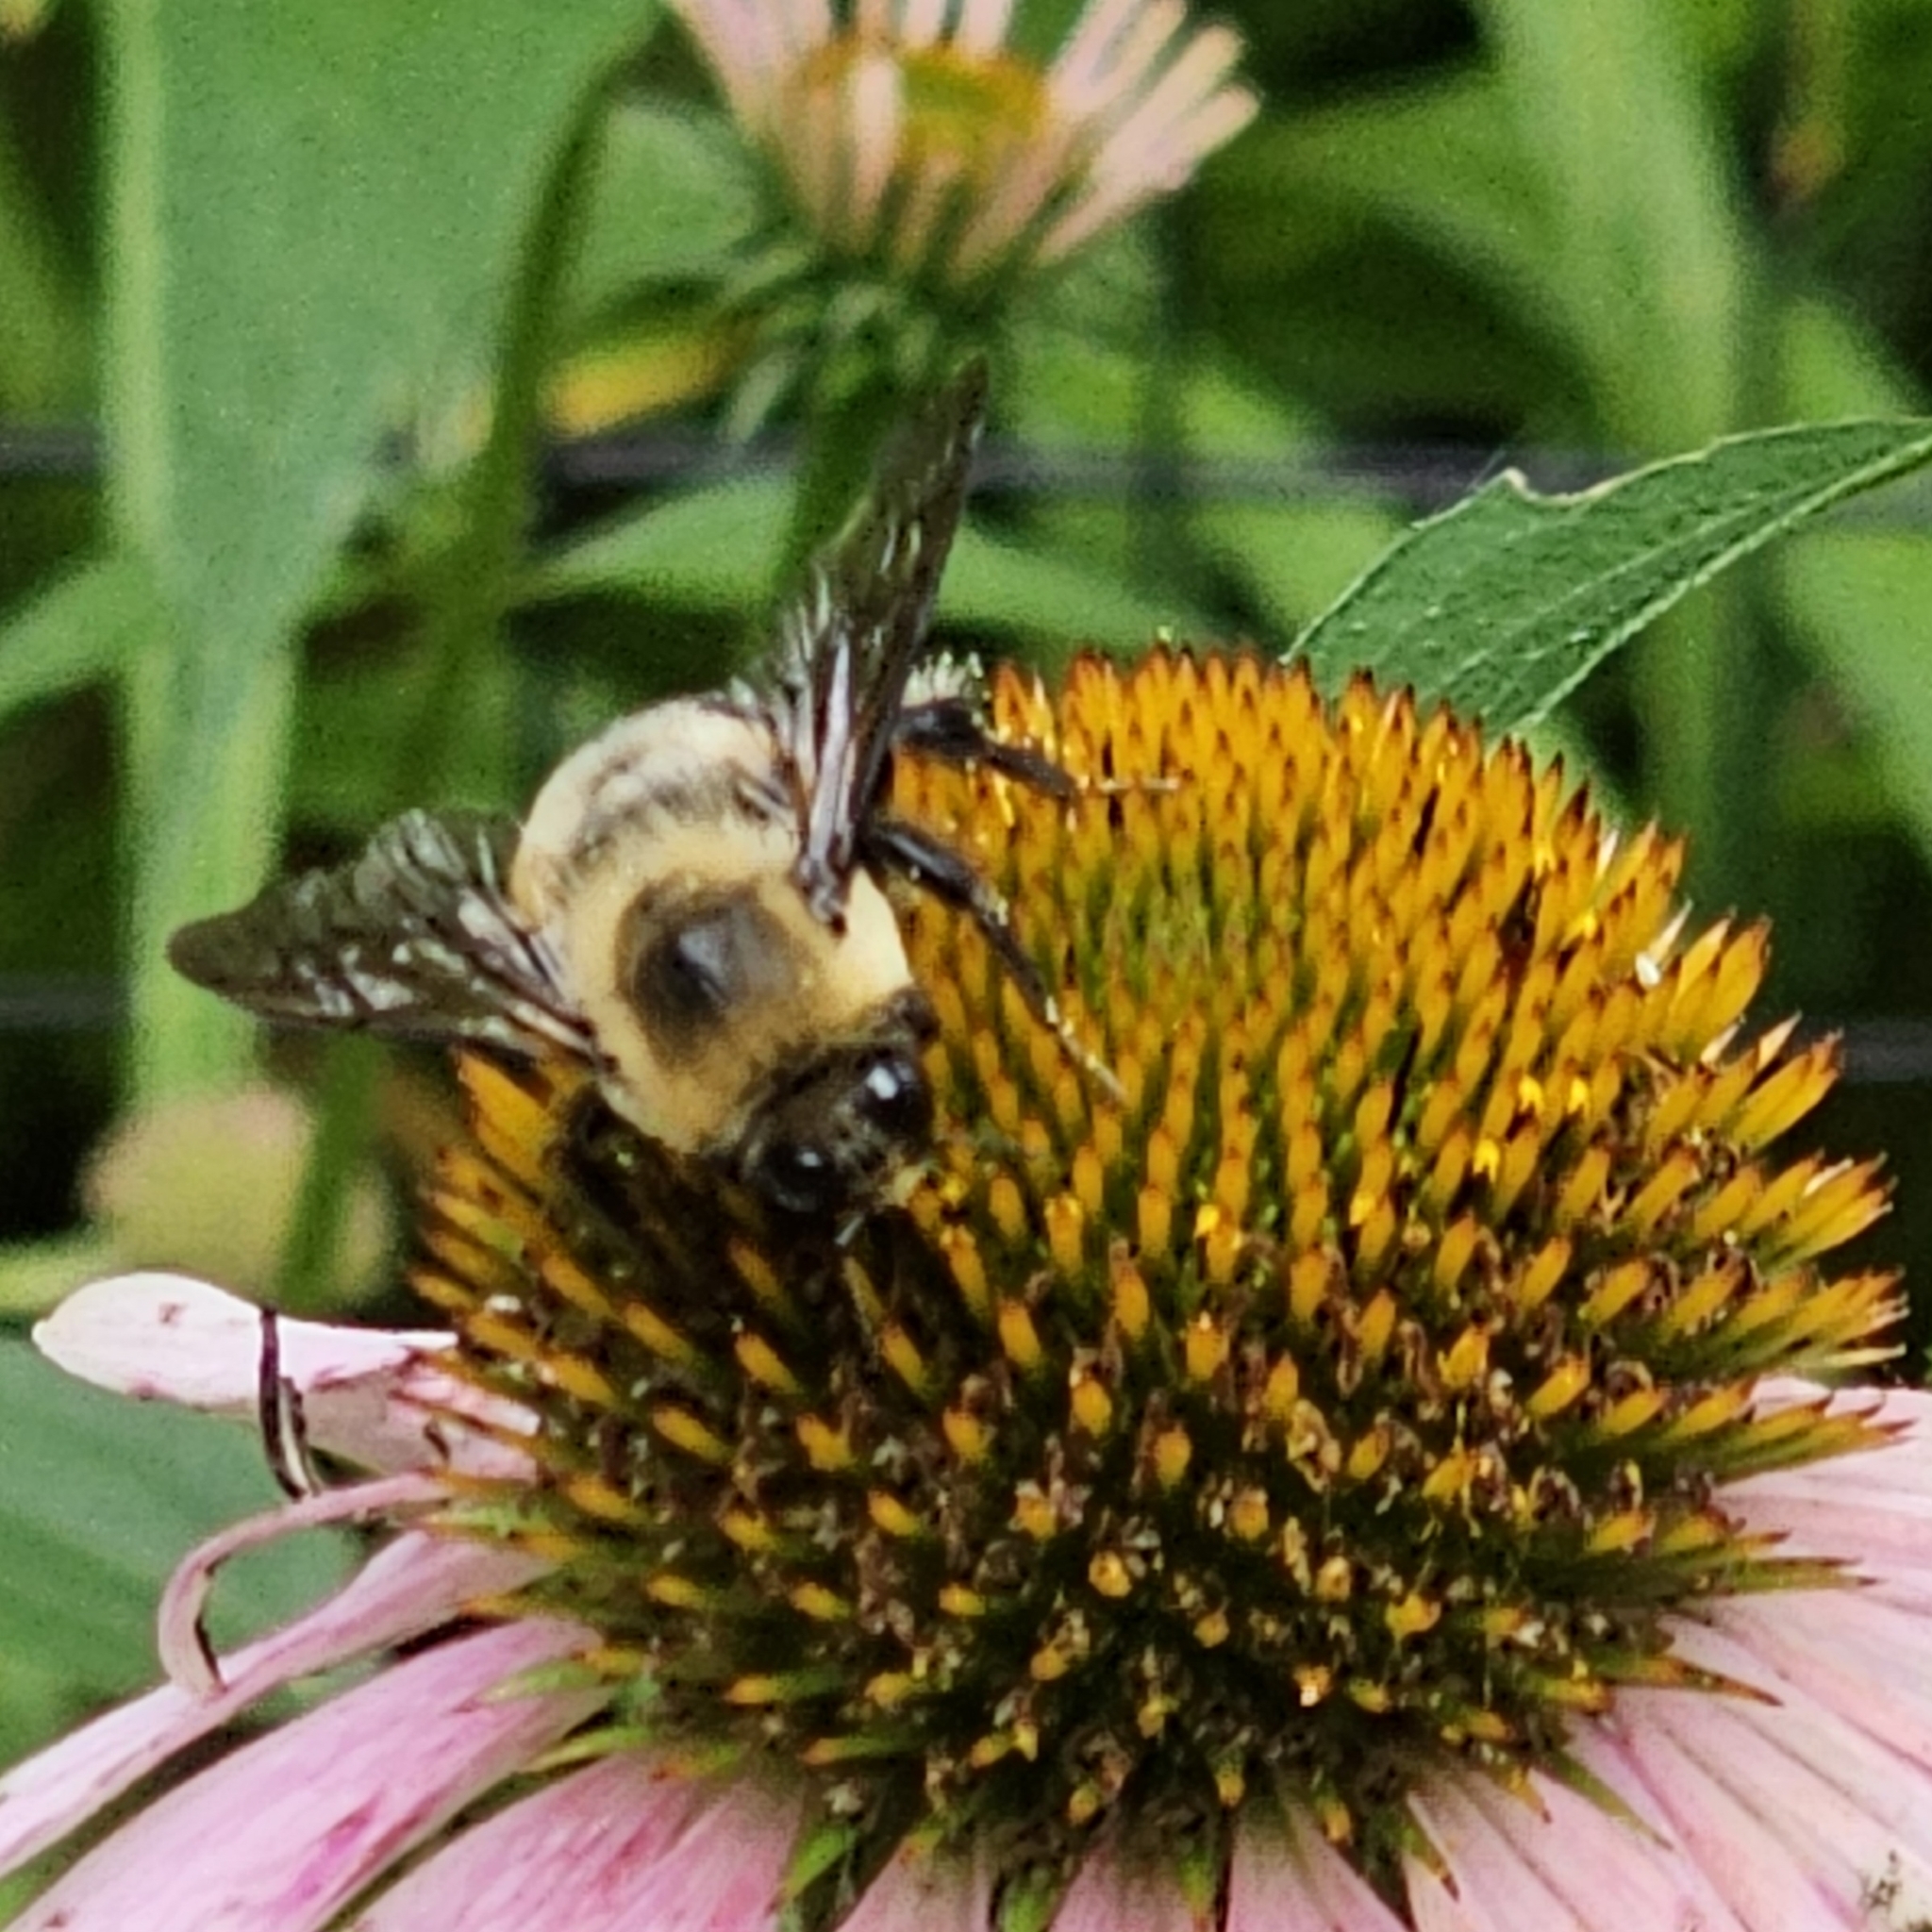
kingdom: Animalia
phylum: Arthropoda
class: Insecta
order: Hymenoptera
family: Apidae
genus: Bombus
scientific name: Bombus griseocollis
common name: Brown-belted bumble bee
